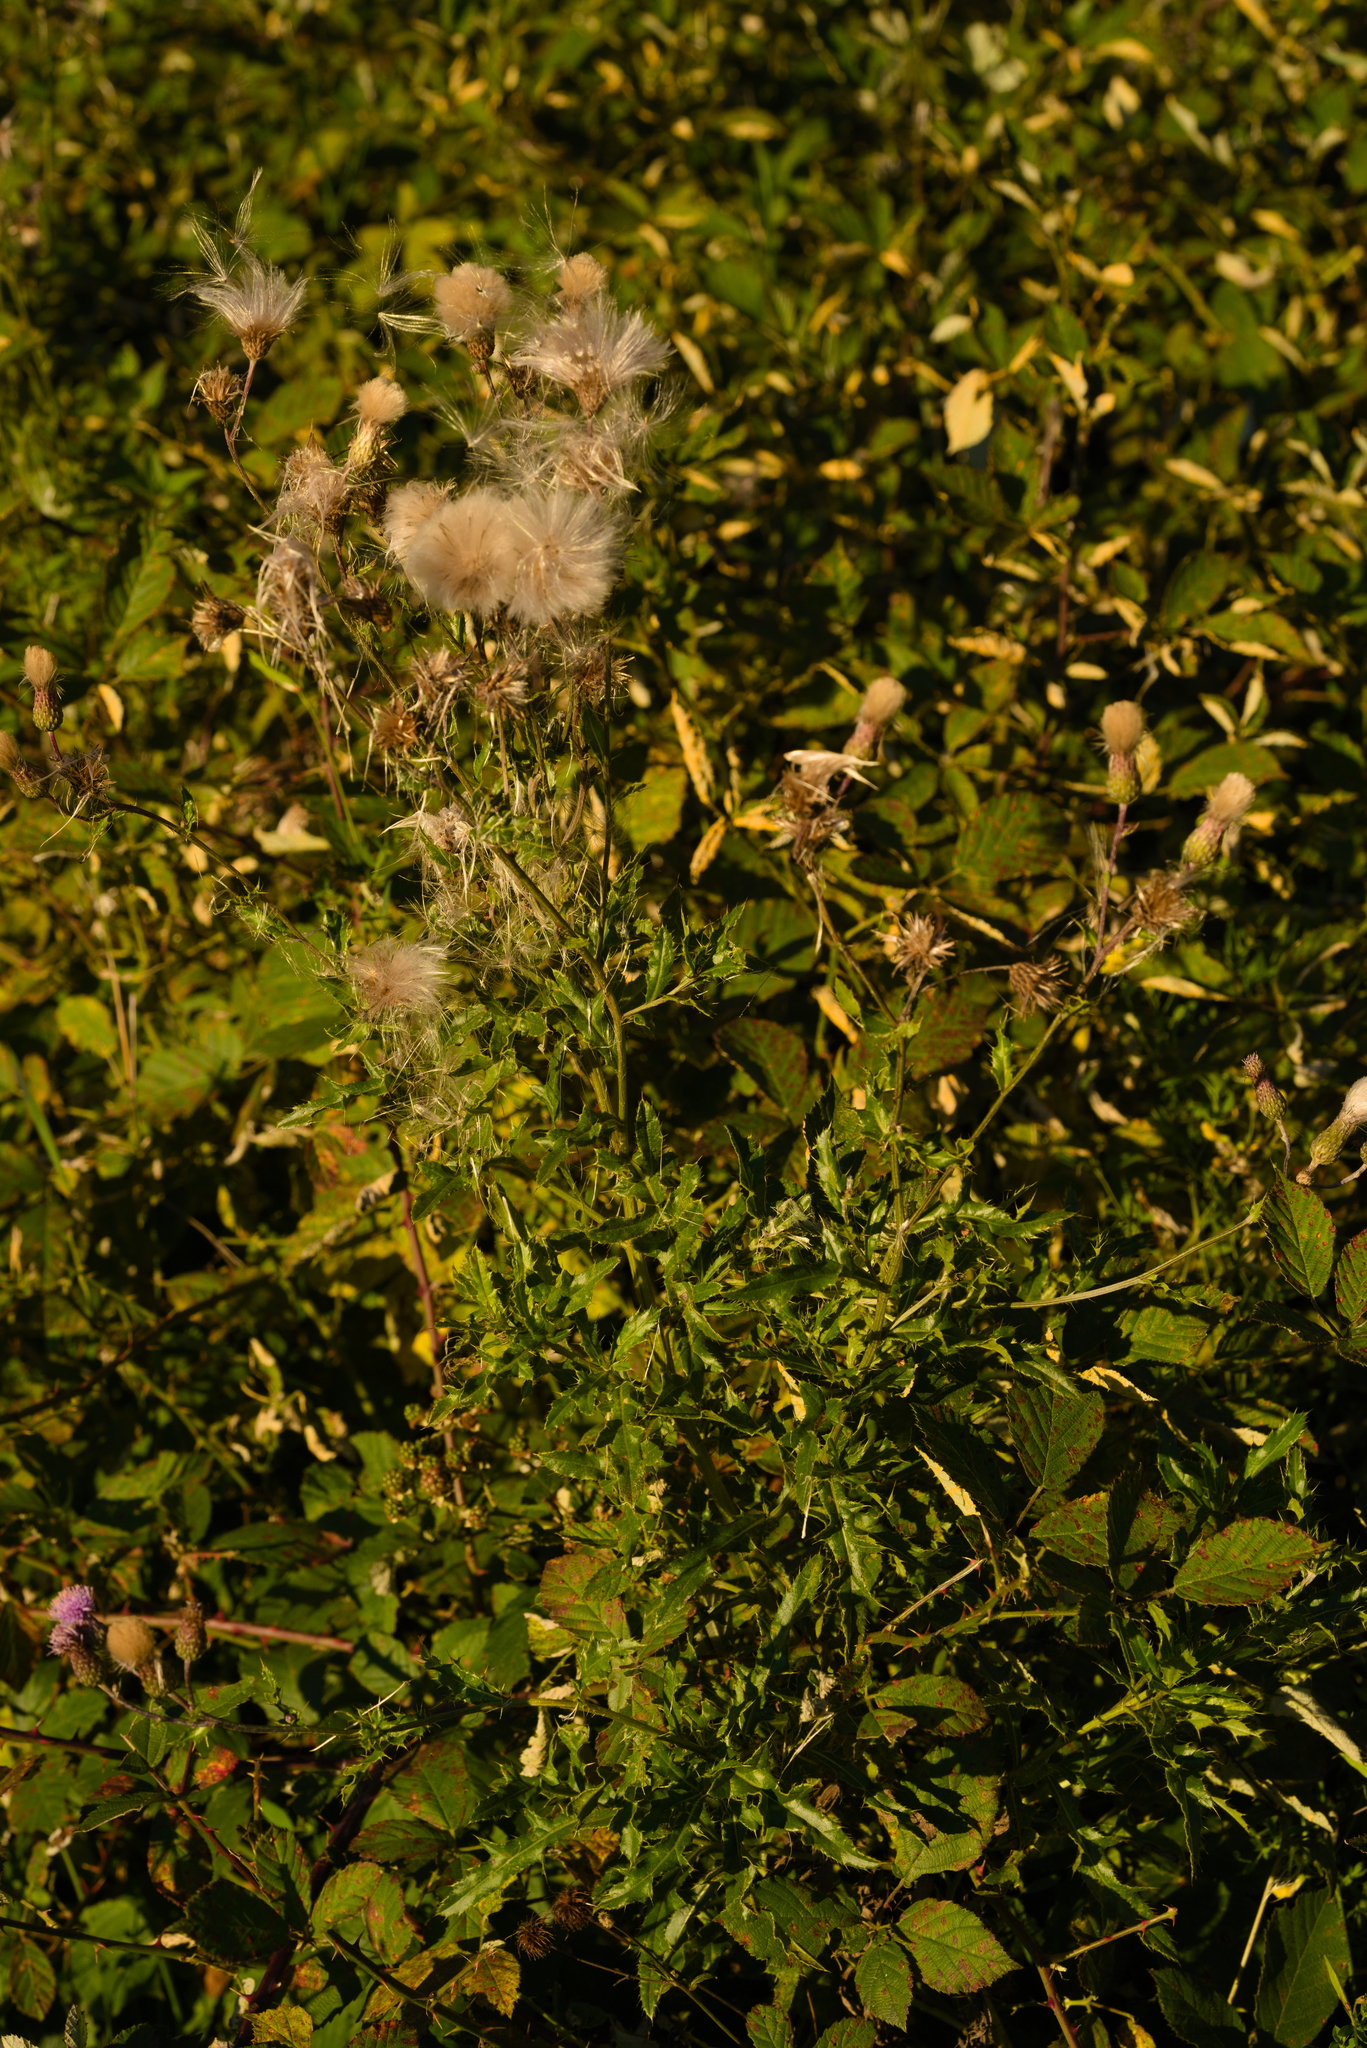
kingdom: Plantae
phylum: Tracheophyta
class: Magnoliopsida
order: Asterales
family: Asteraceae
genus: Cirsium
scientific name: Cirsium arvense
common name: Creeping thistle
